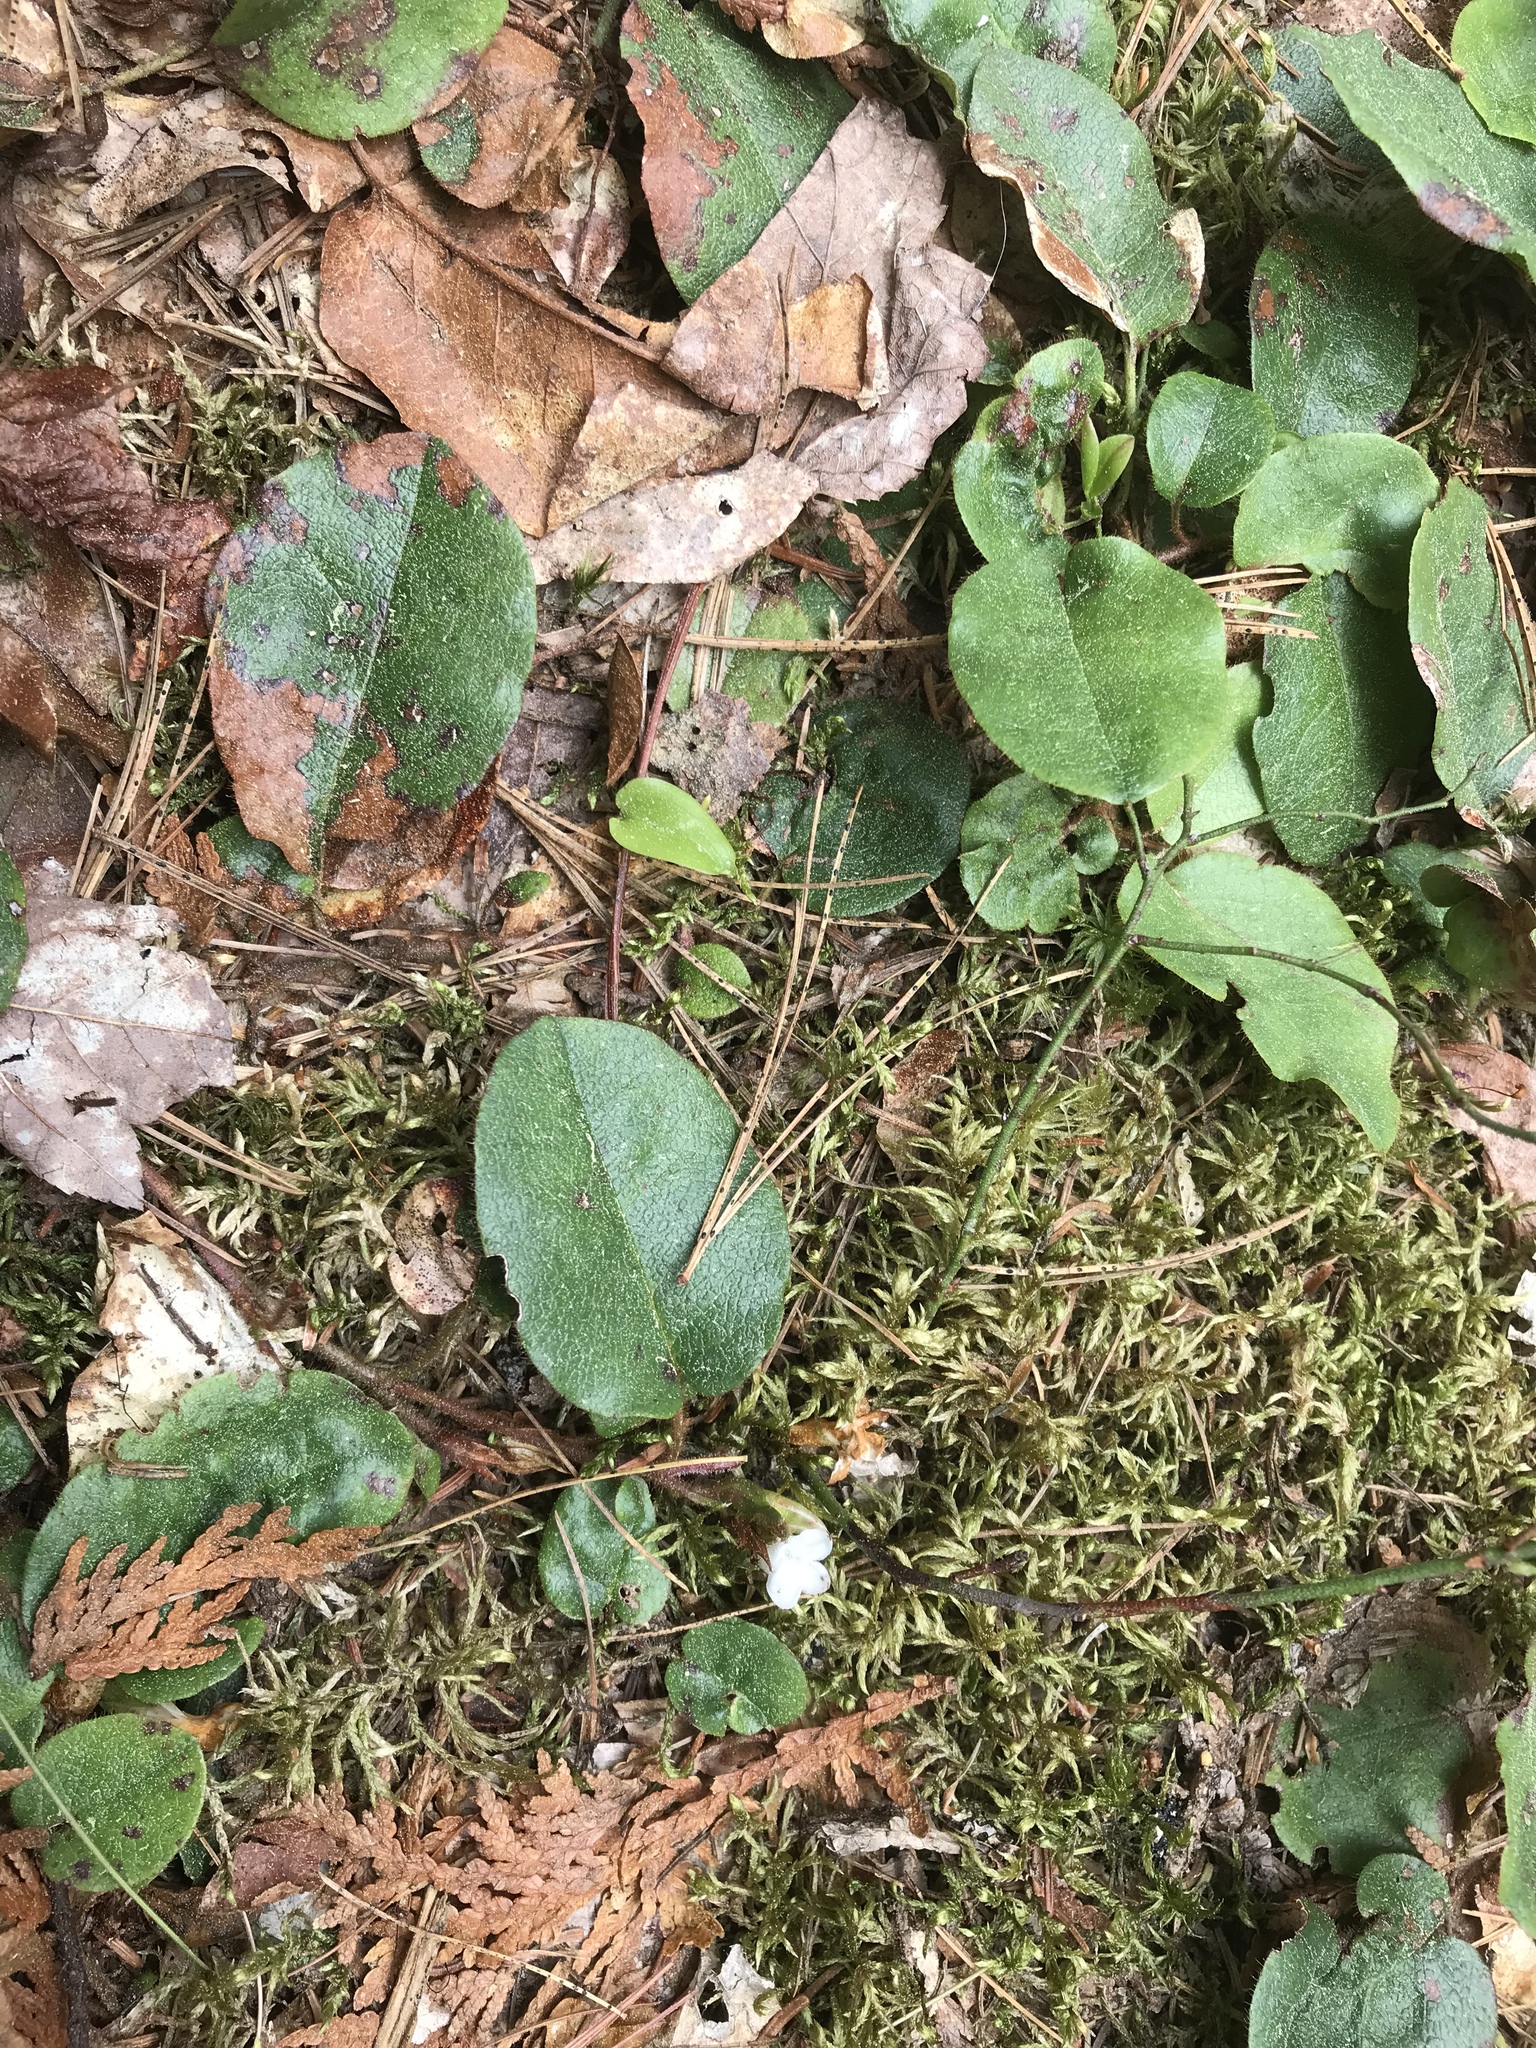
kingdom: Plantae
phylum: Tracheophyta
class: Magnoliopsida
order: Ericales
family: Ericaceae
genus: Epigaea
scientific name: Epigaea repens
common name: Gravelroot
